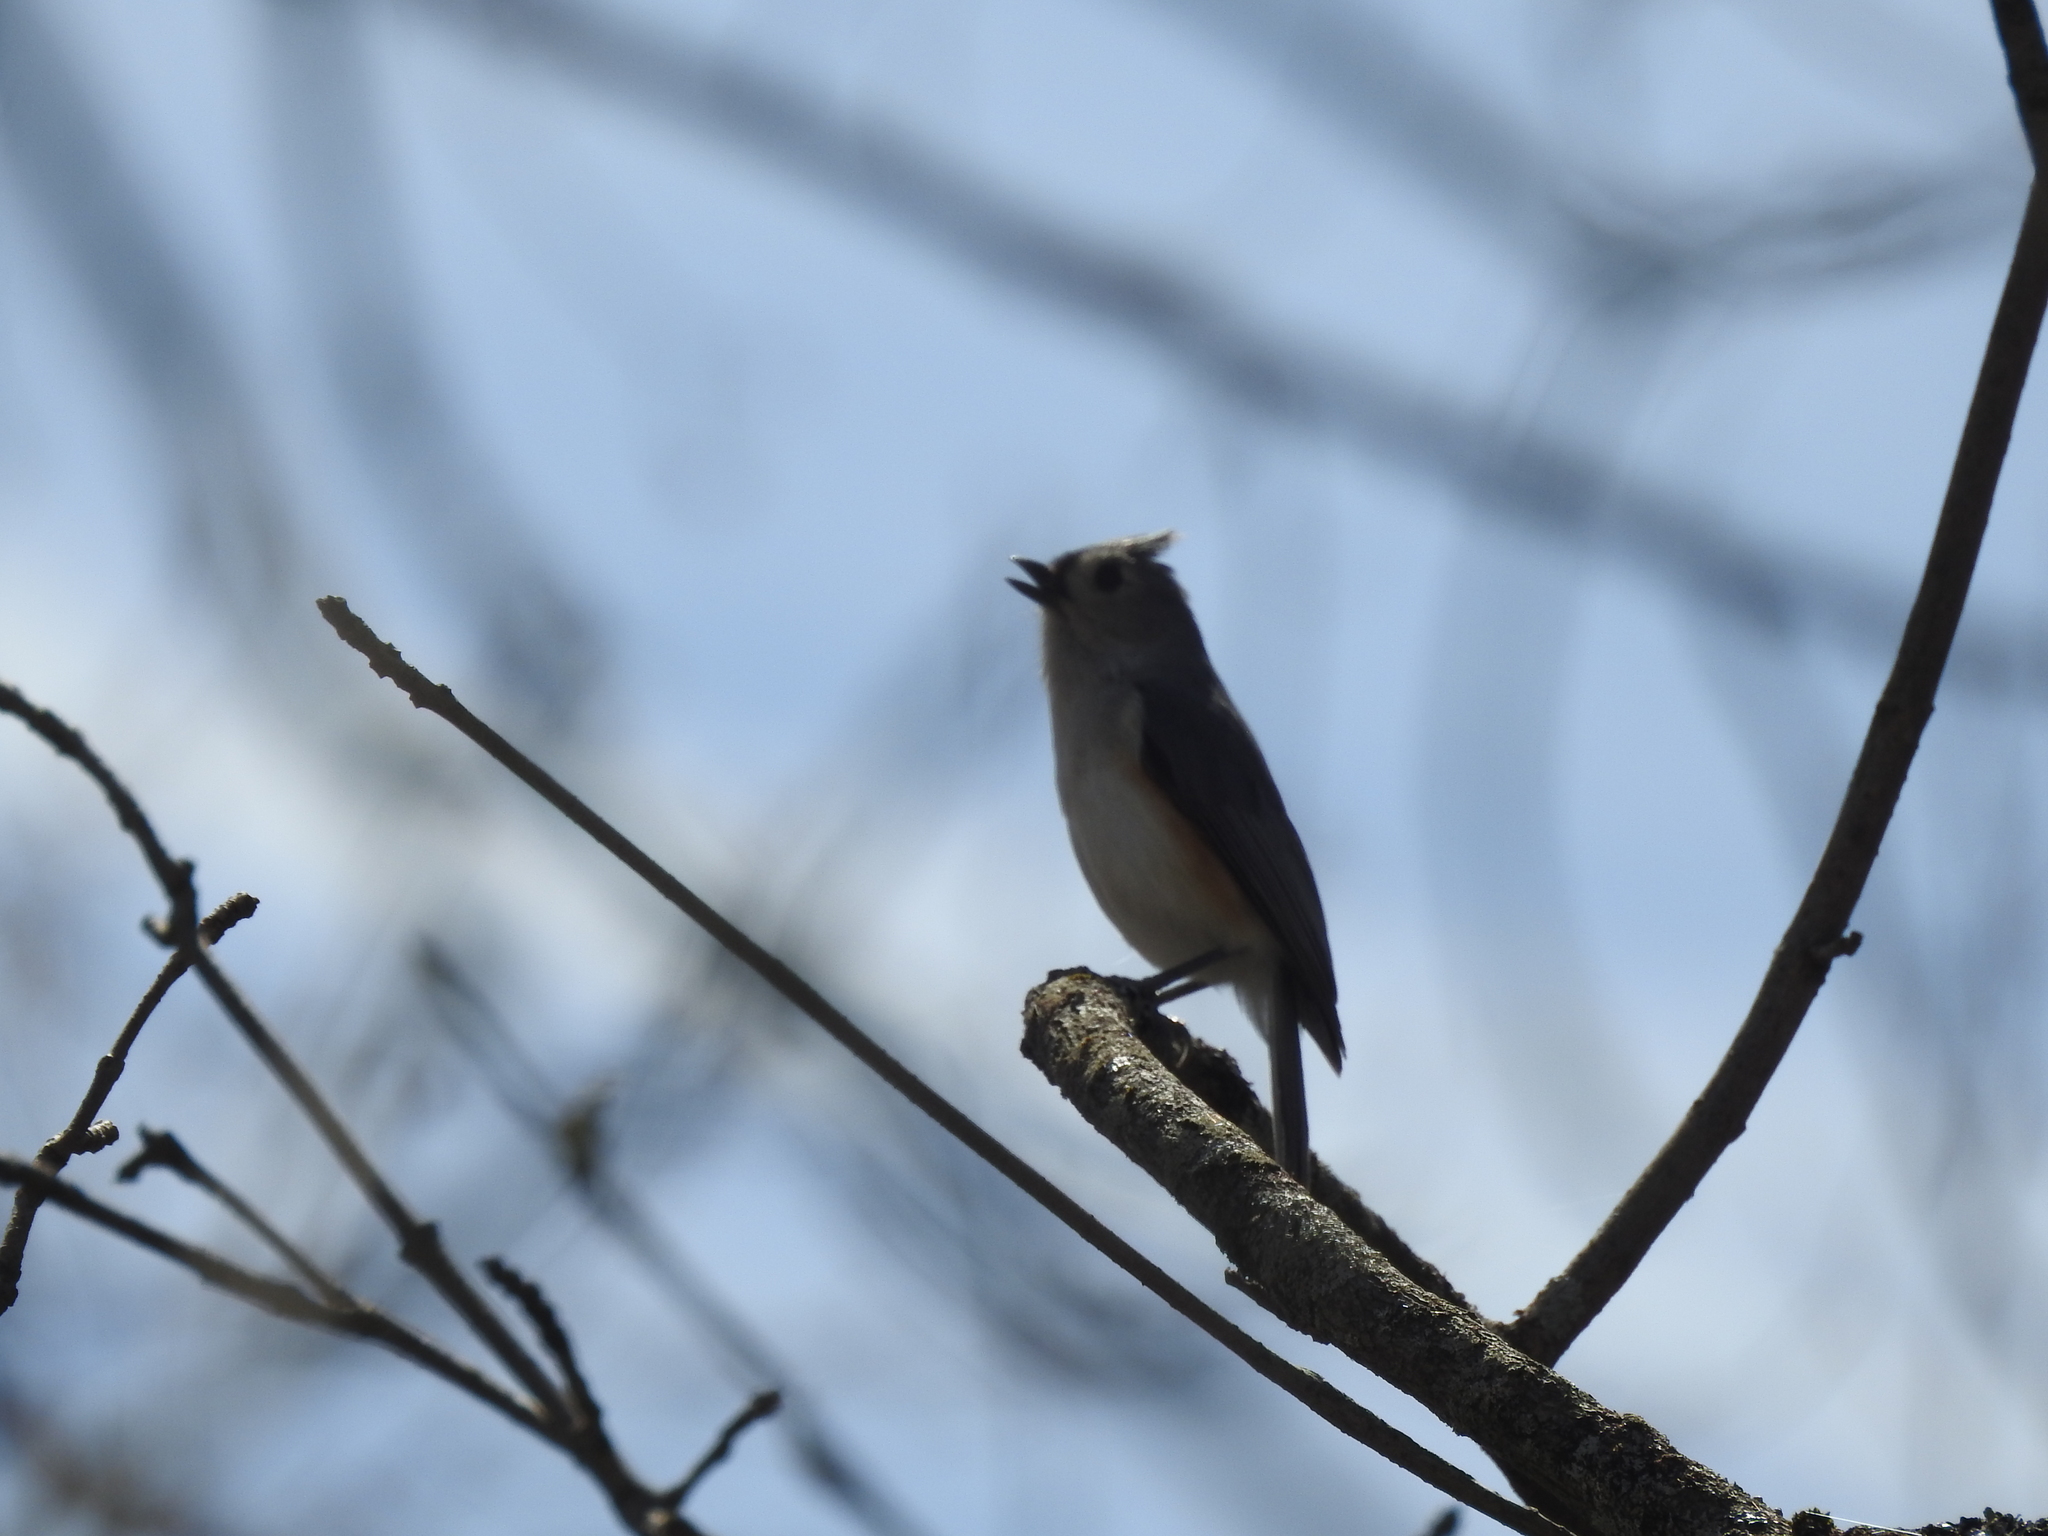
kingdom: Animalia
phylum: Chordata
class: Aves
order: Passeriformes
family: Paridae
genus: Baeolophus
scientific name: Baeolophus bicolor
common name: Tufted titmouse
